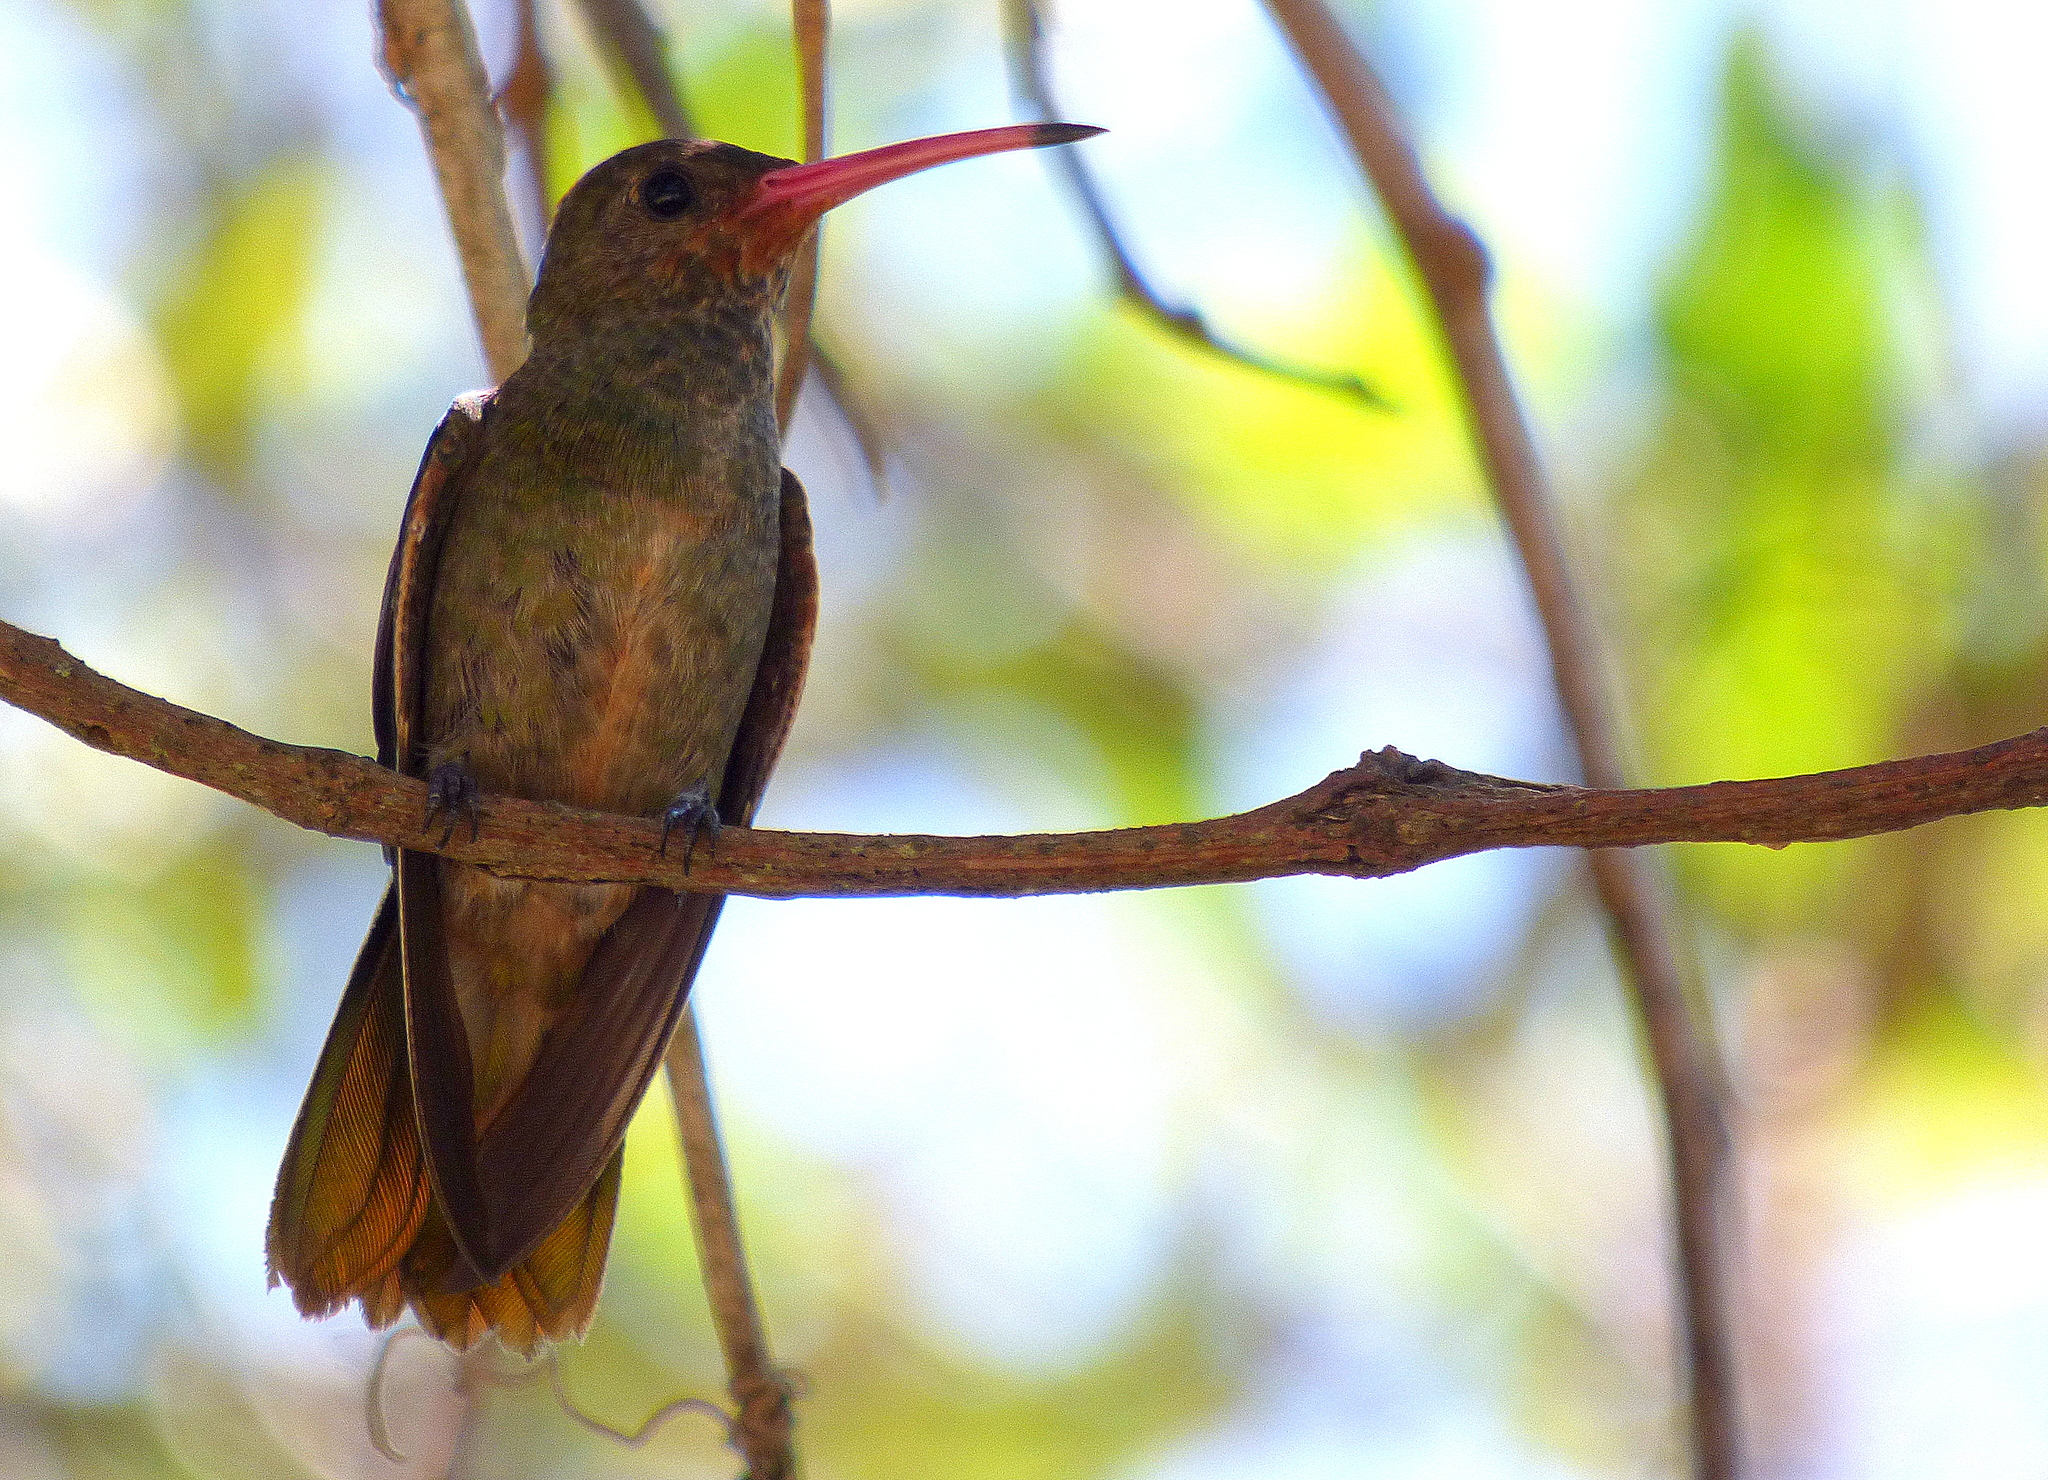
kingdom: Animalia
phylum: Chordata
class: Aves
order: Apodiformes
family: Trochilidae
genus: Hylocharis
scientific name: Hylocharis chrysura
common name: Gilded sapphire
